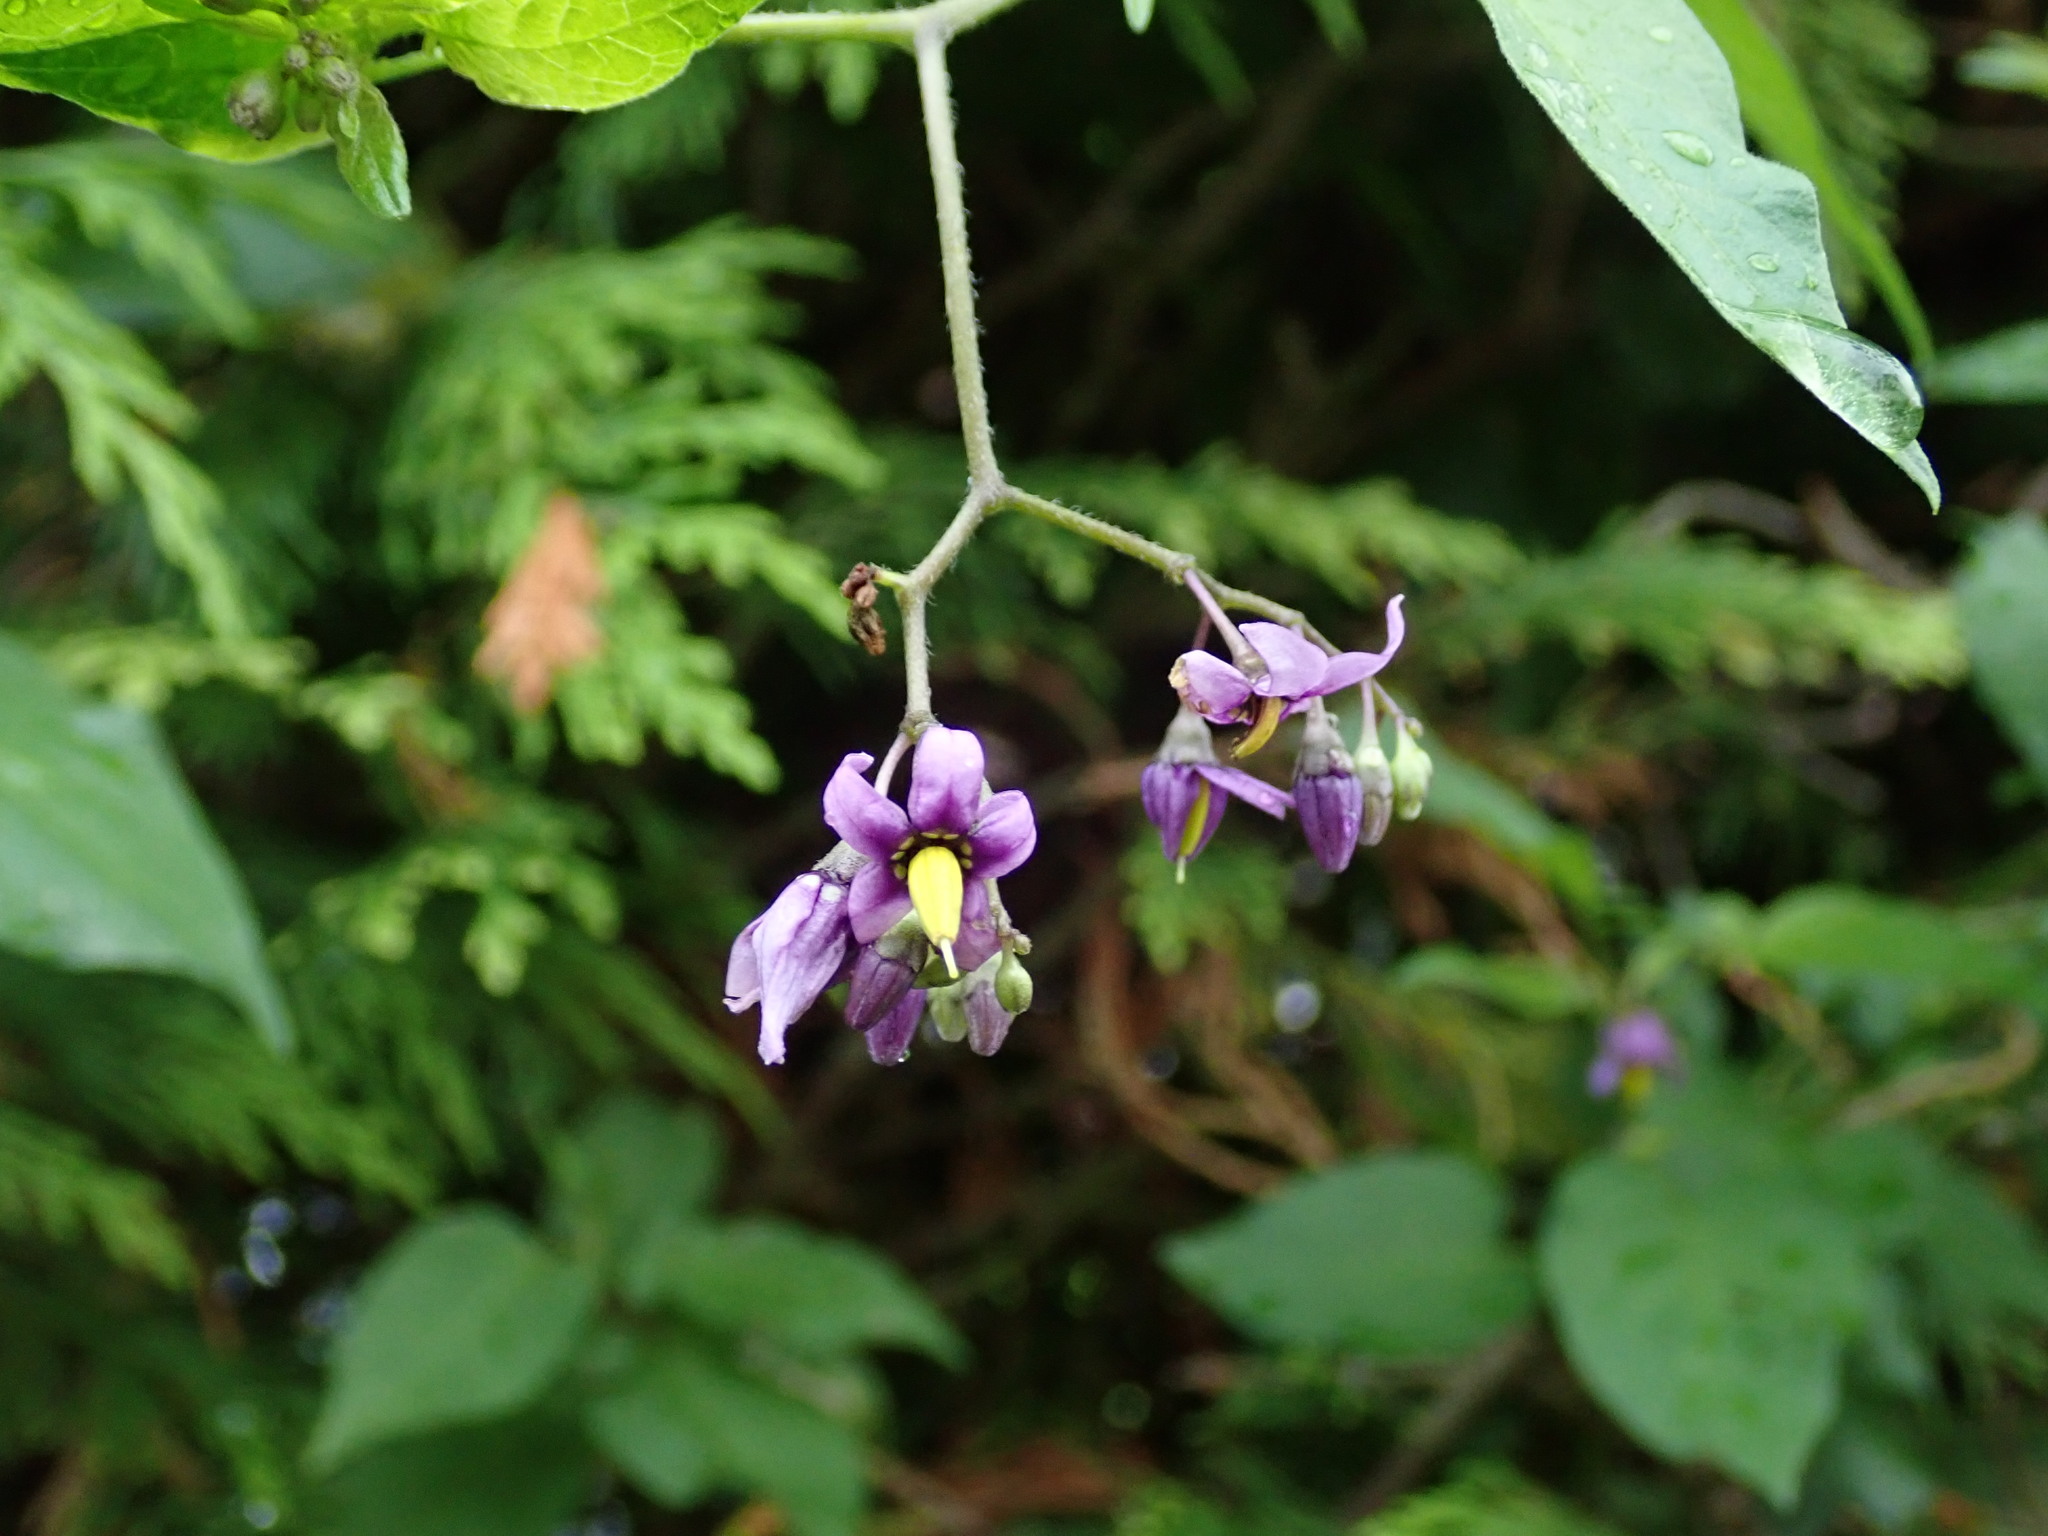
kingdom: Plantae
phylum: Tracheophyta
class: Magnoliopsida
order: Solanales
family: Solanaceae
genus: Solanum
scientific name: Solanum dulcamara
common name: Climbing nightshade
